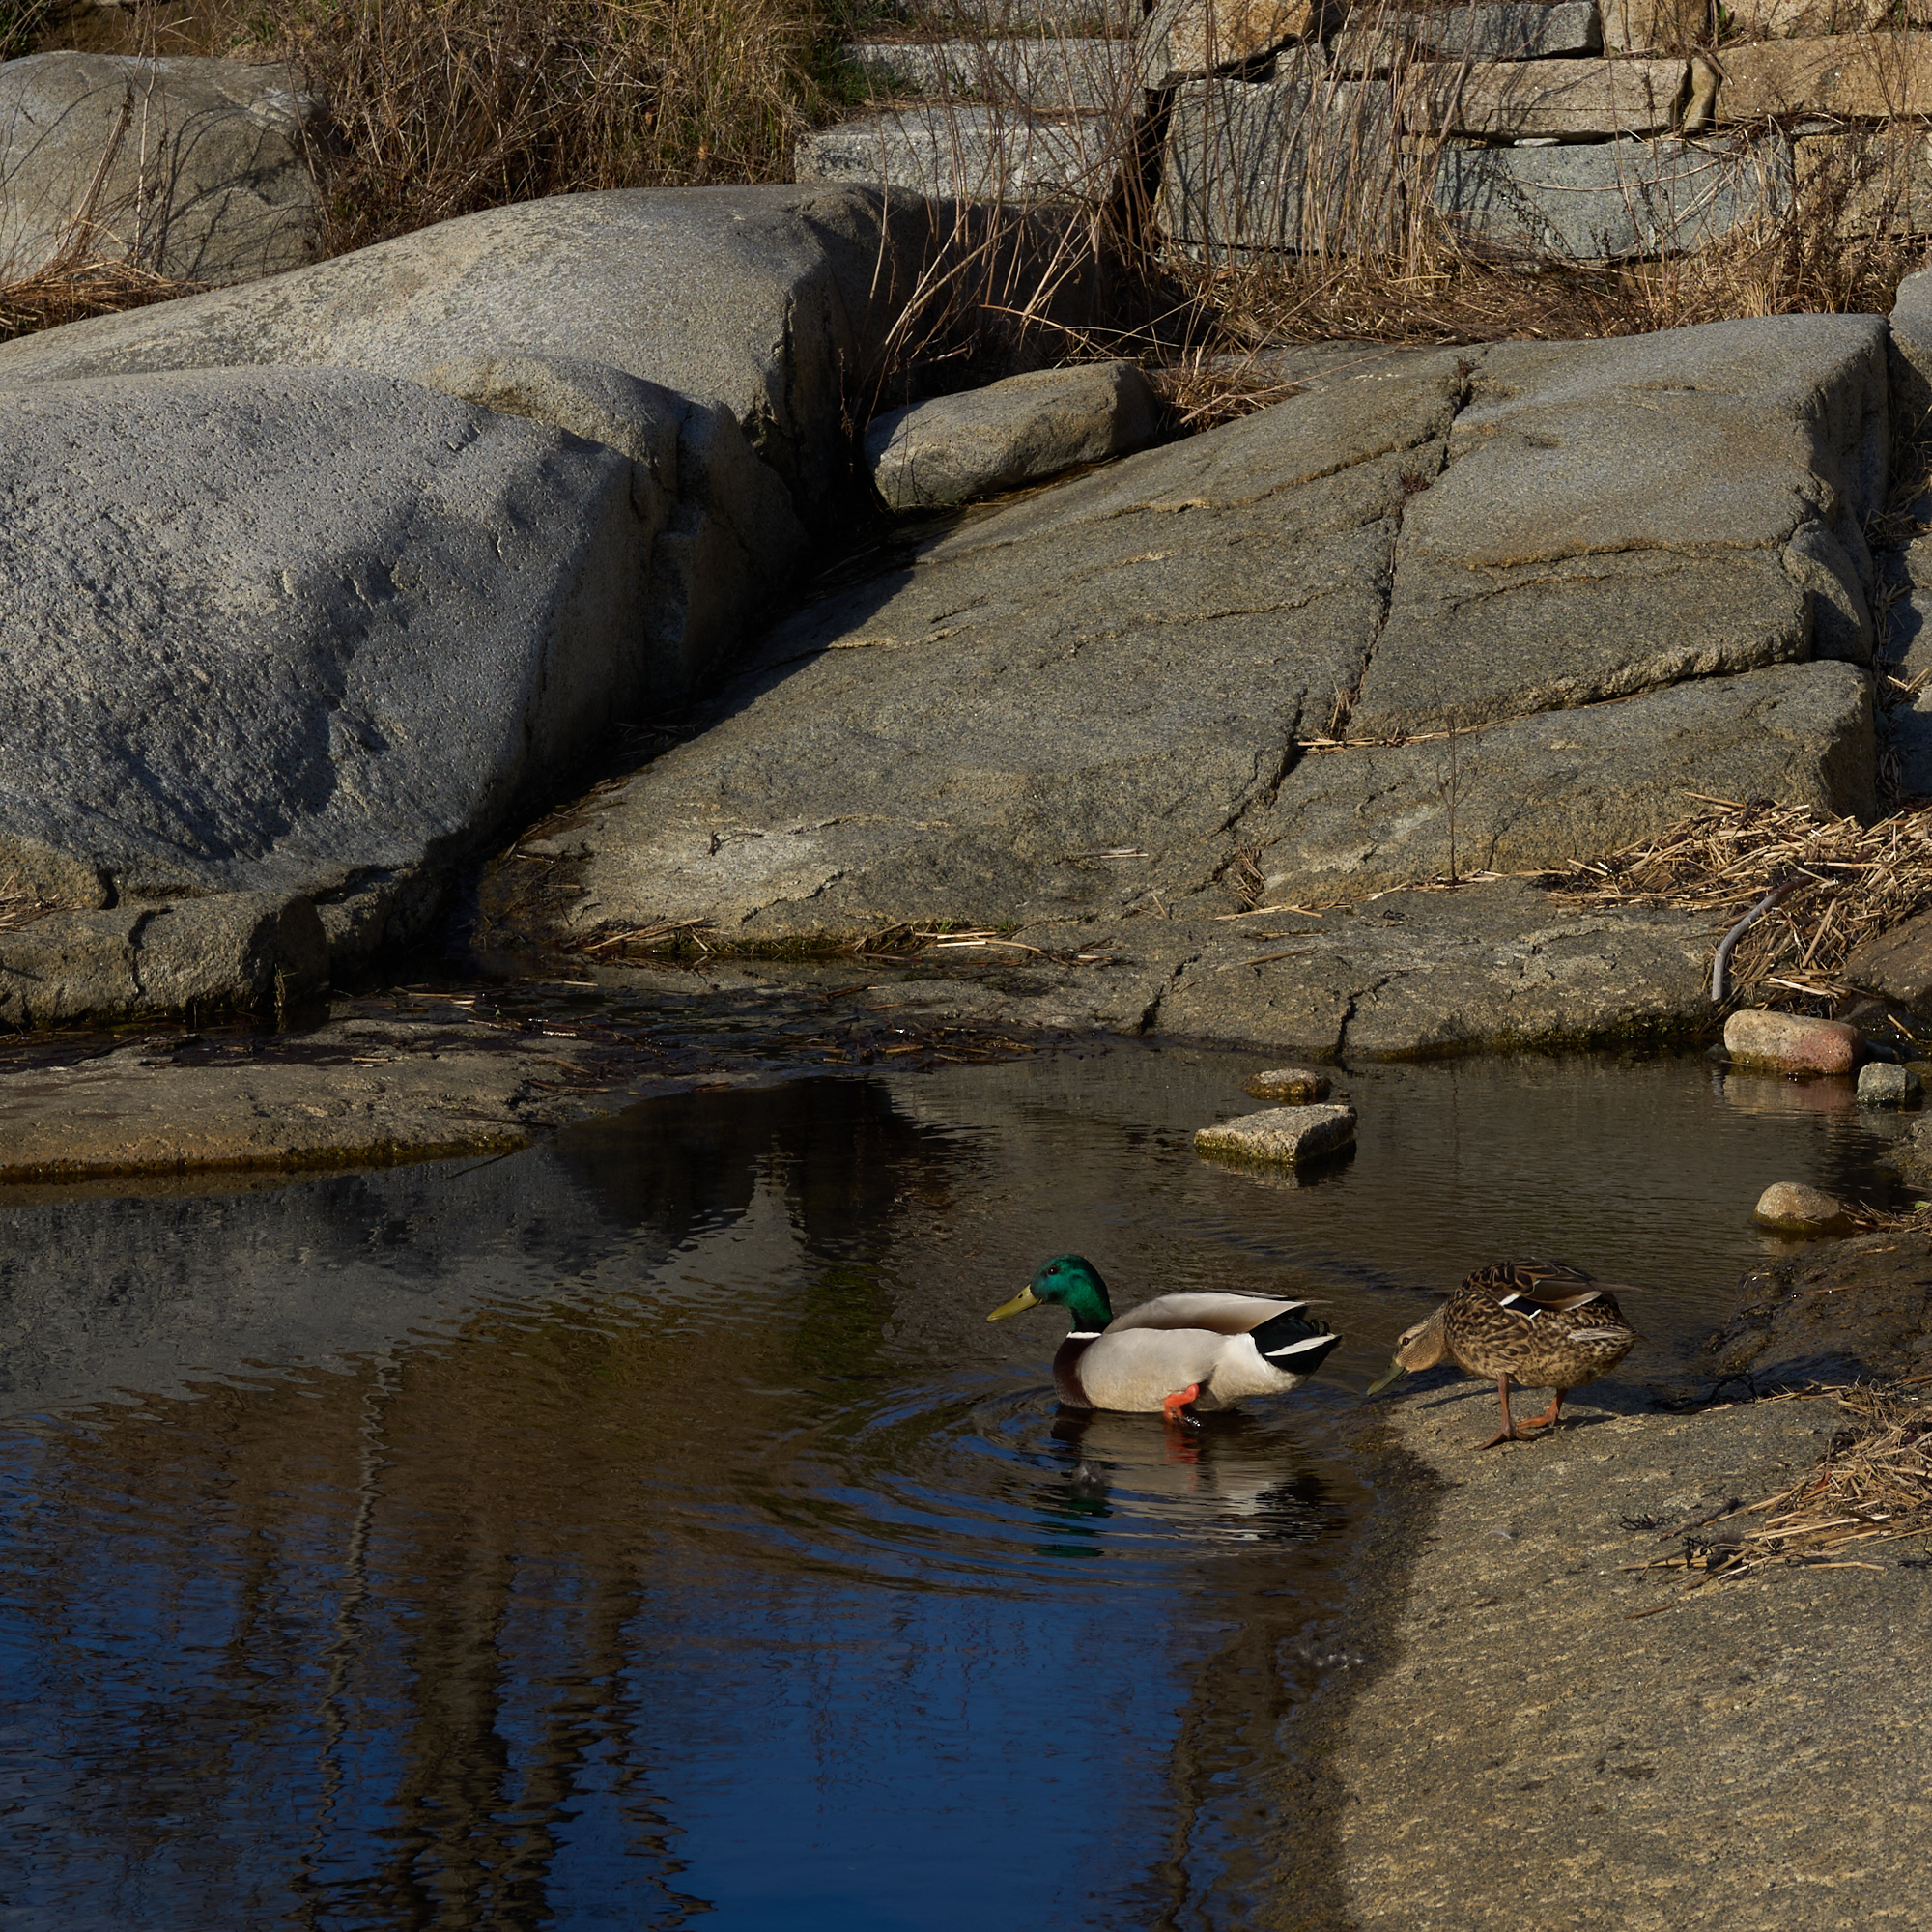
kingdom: Animalia
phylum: Chordata
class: Aves
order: Anseriformes
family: Anatidae
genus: Anas
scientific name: Anas platyrhynchos
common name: Mallard
